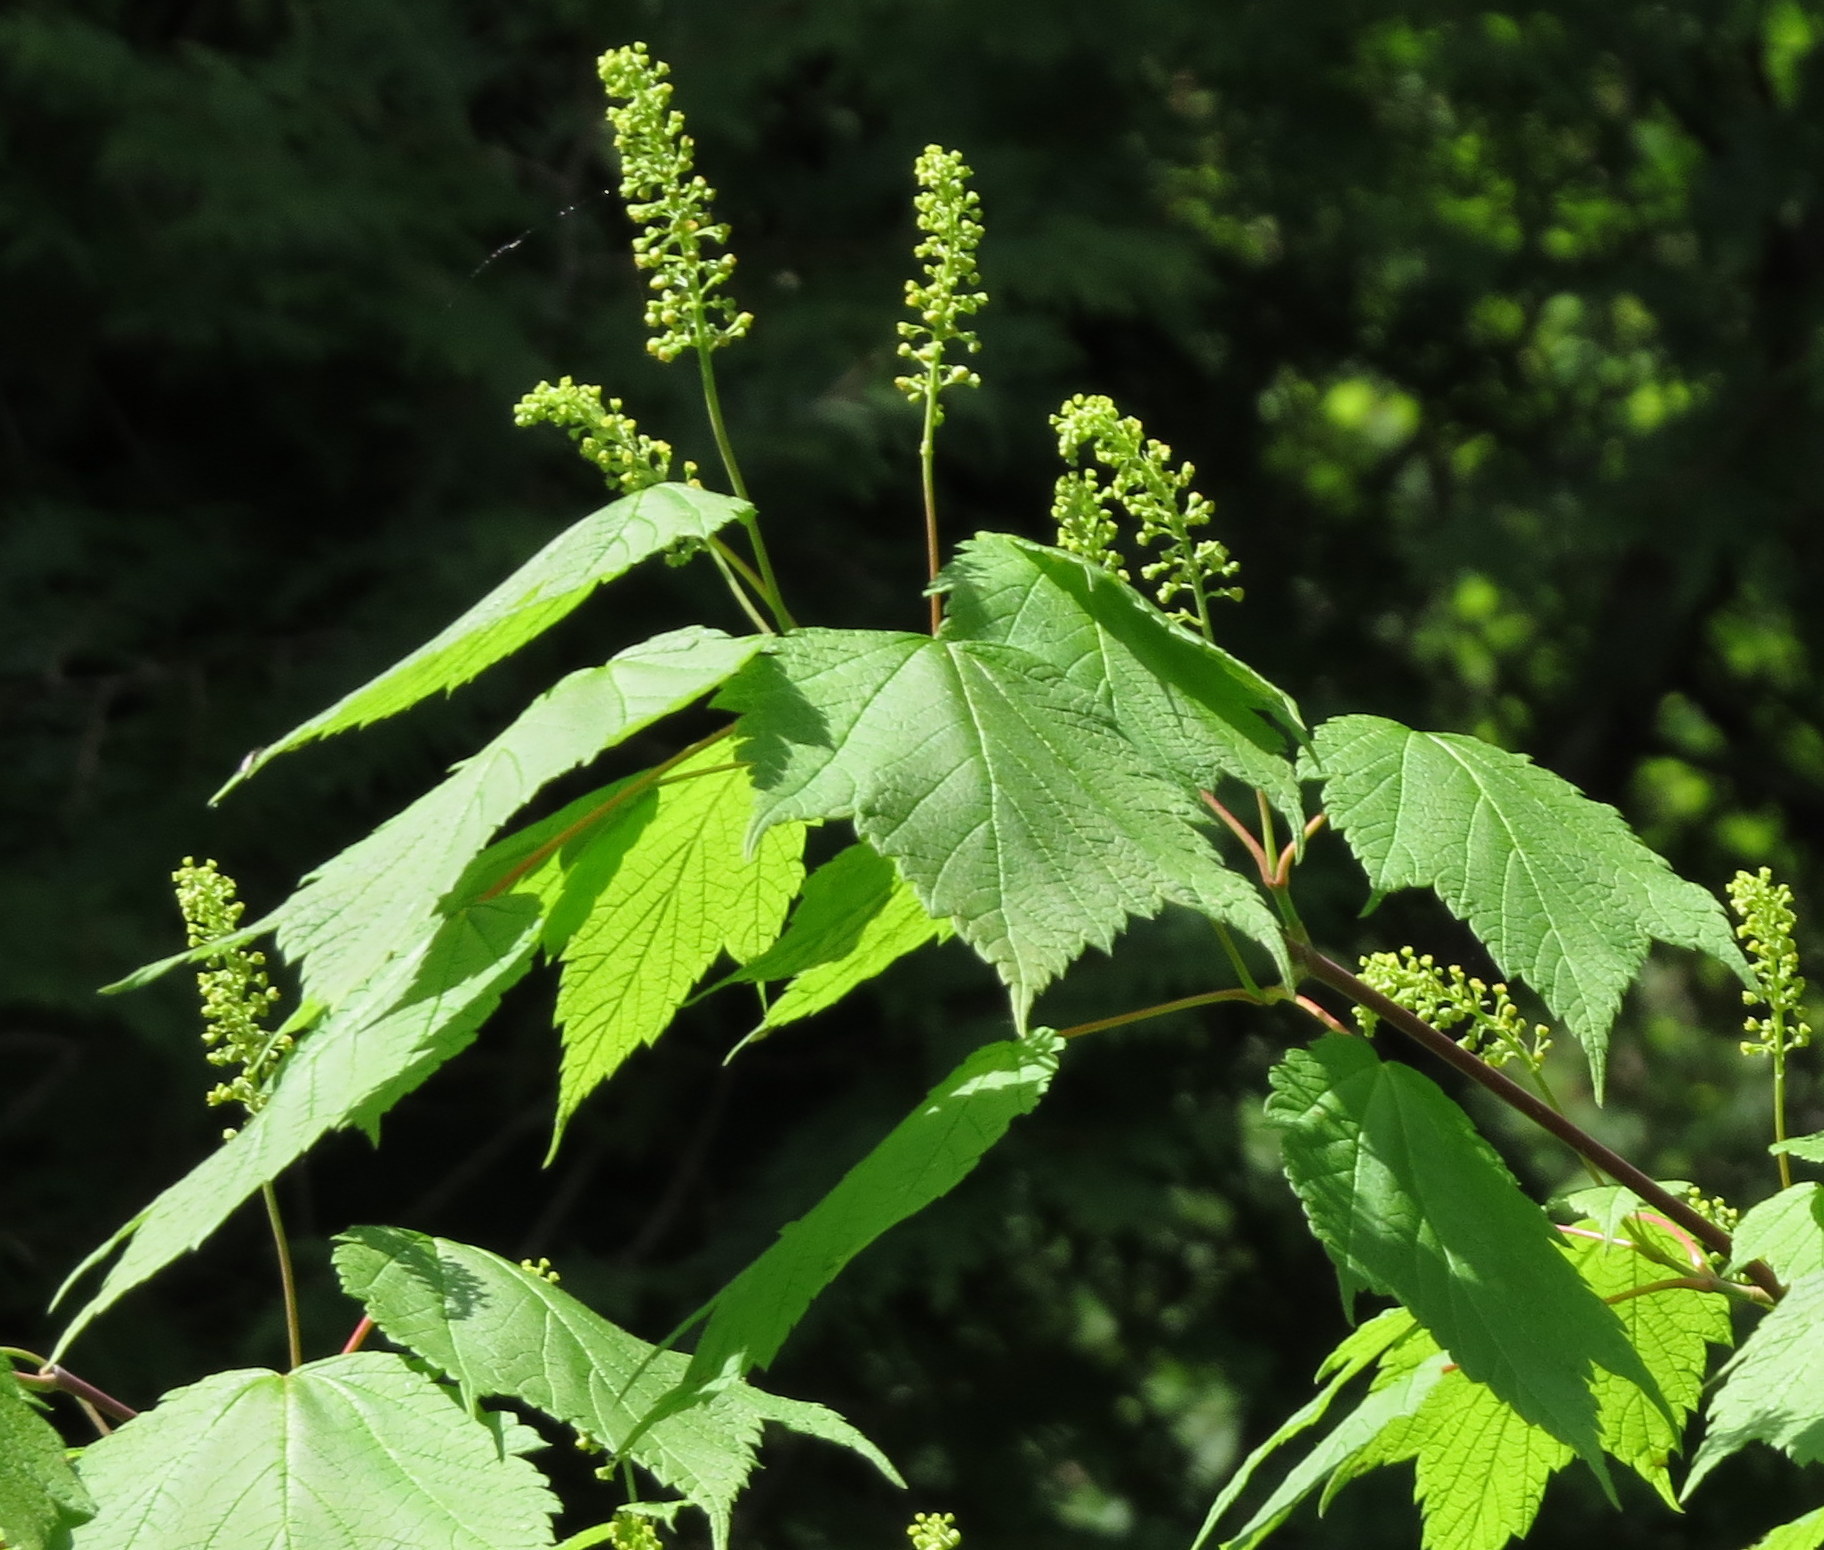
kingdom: Plantae
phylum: Tracheophyta
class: Magnoliopsida
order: Sapindales
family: Sapindaceae
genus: Acer
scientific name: Acer spicatum
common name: Mountain maple
